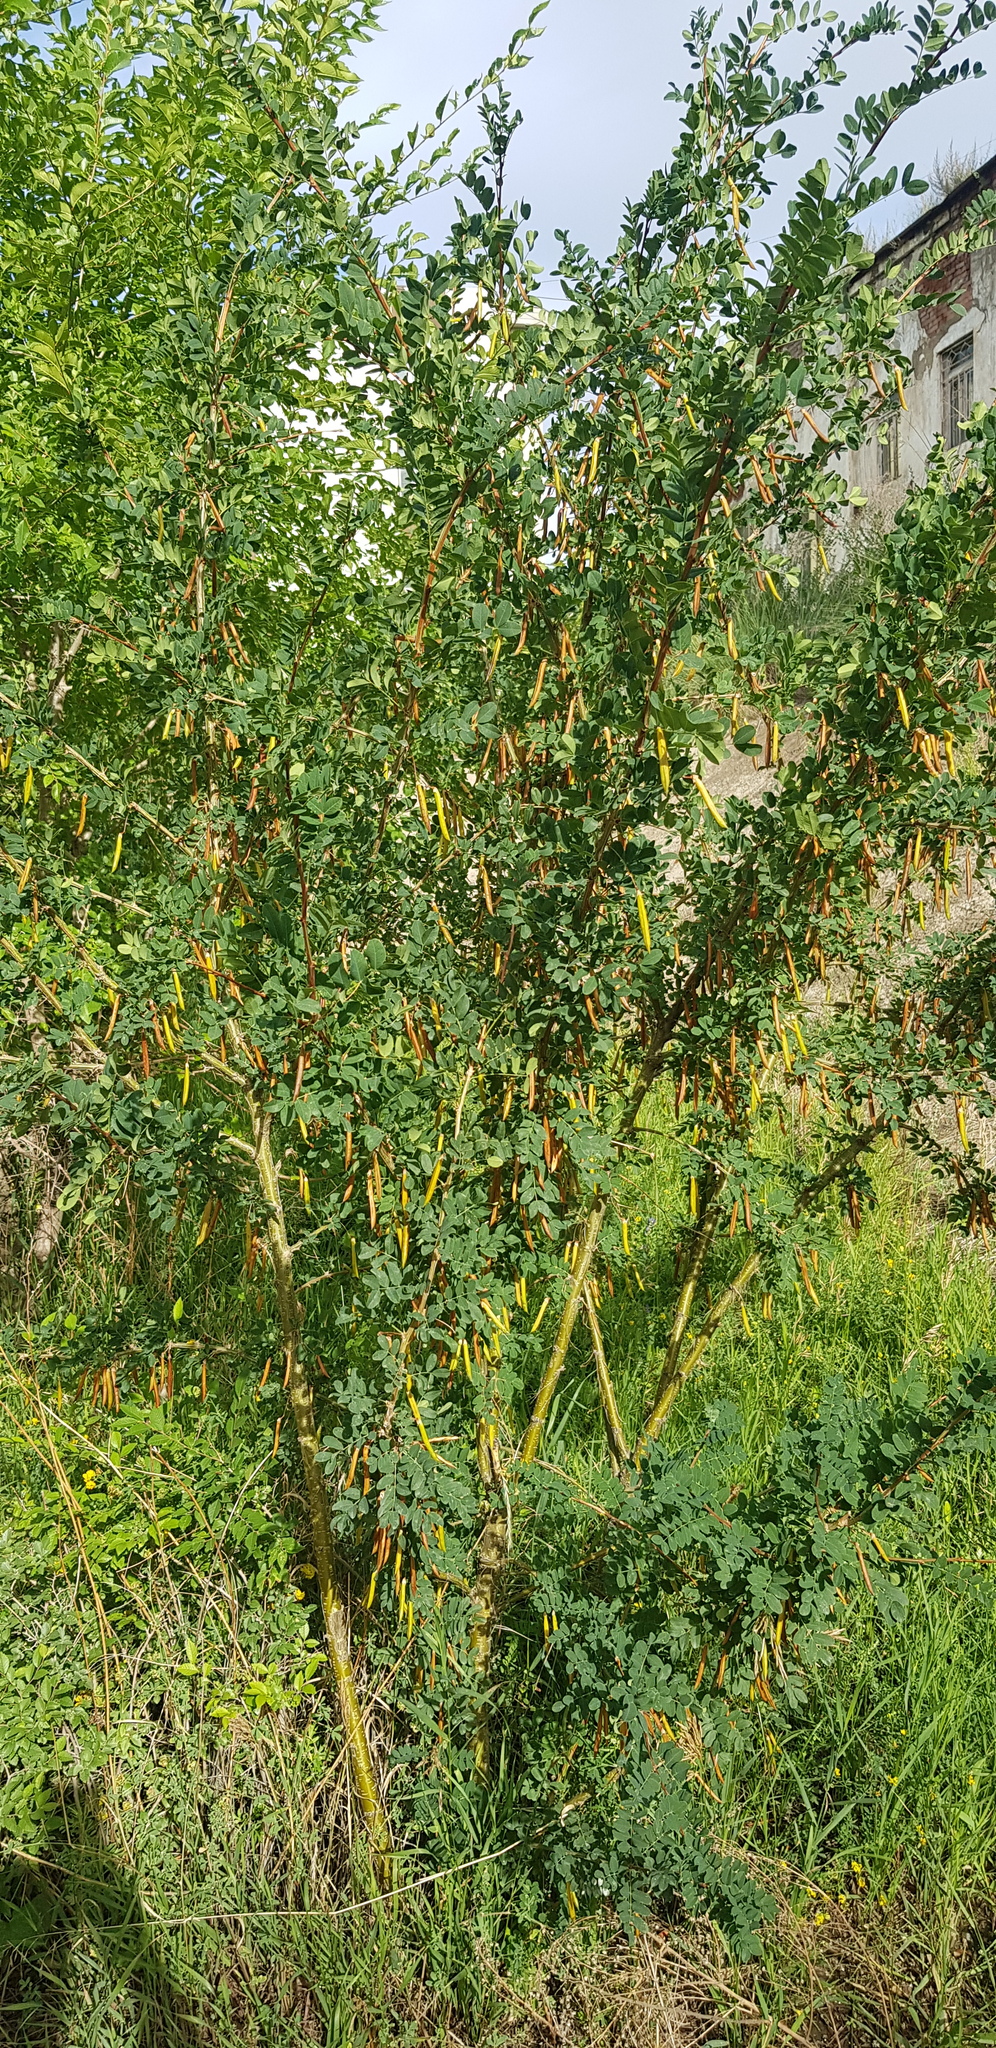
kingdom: Plantae
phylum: Tracheophyta
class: Magnoliopsida
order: Fabales
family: Fabaceae
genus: Caragana
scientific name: Caragana arborescens
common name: Siberian peashrub
